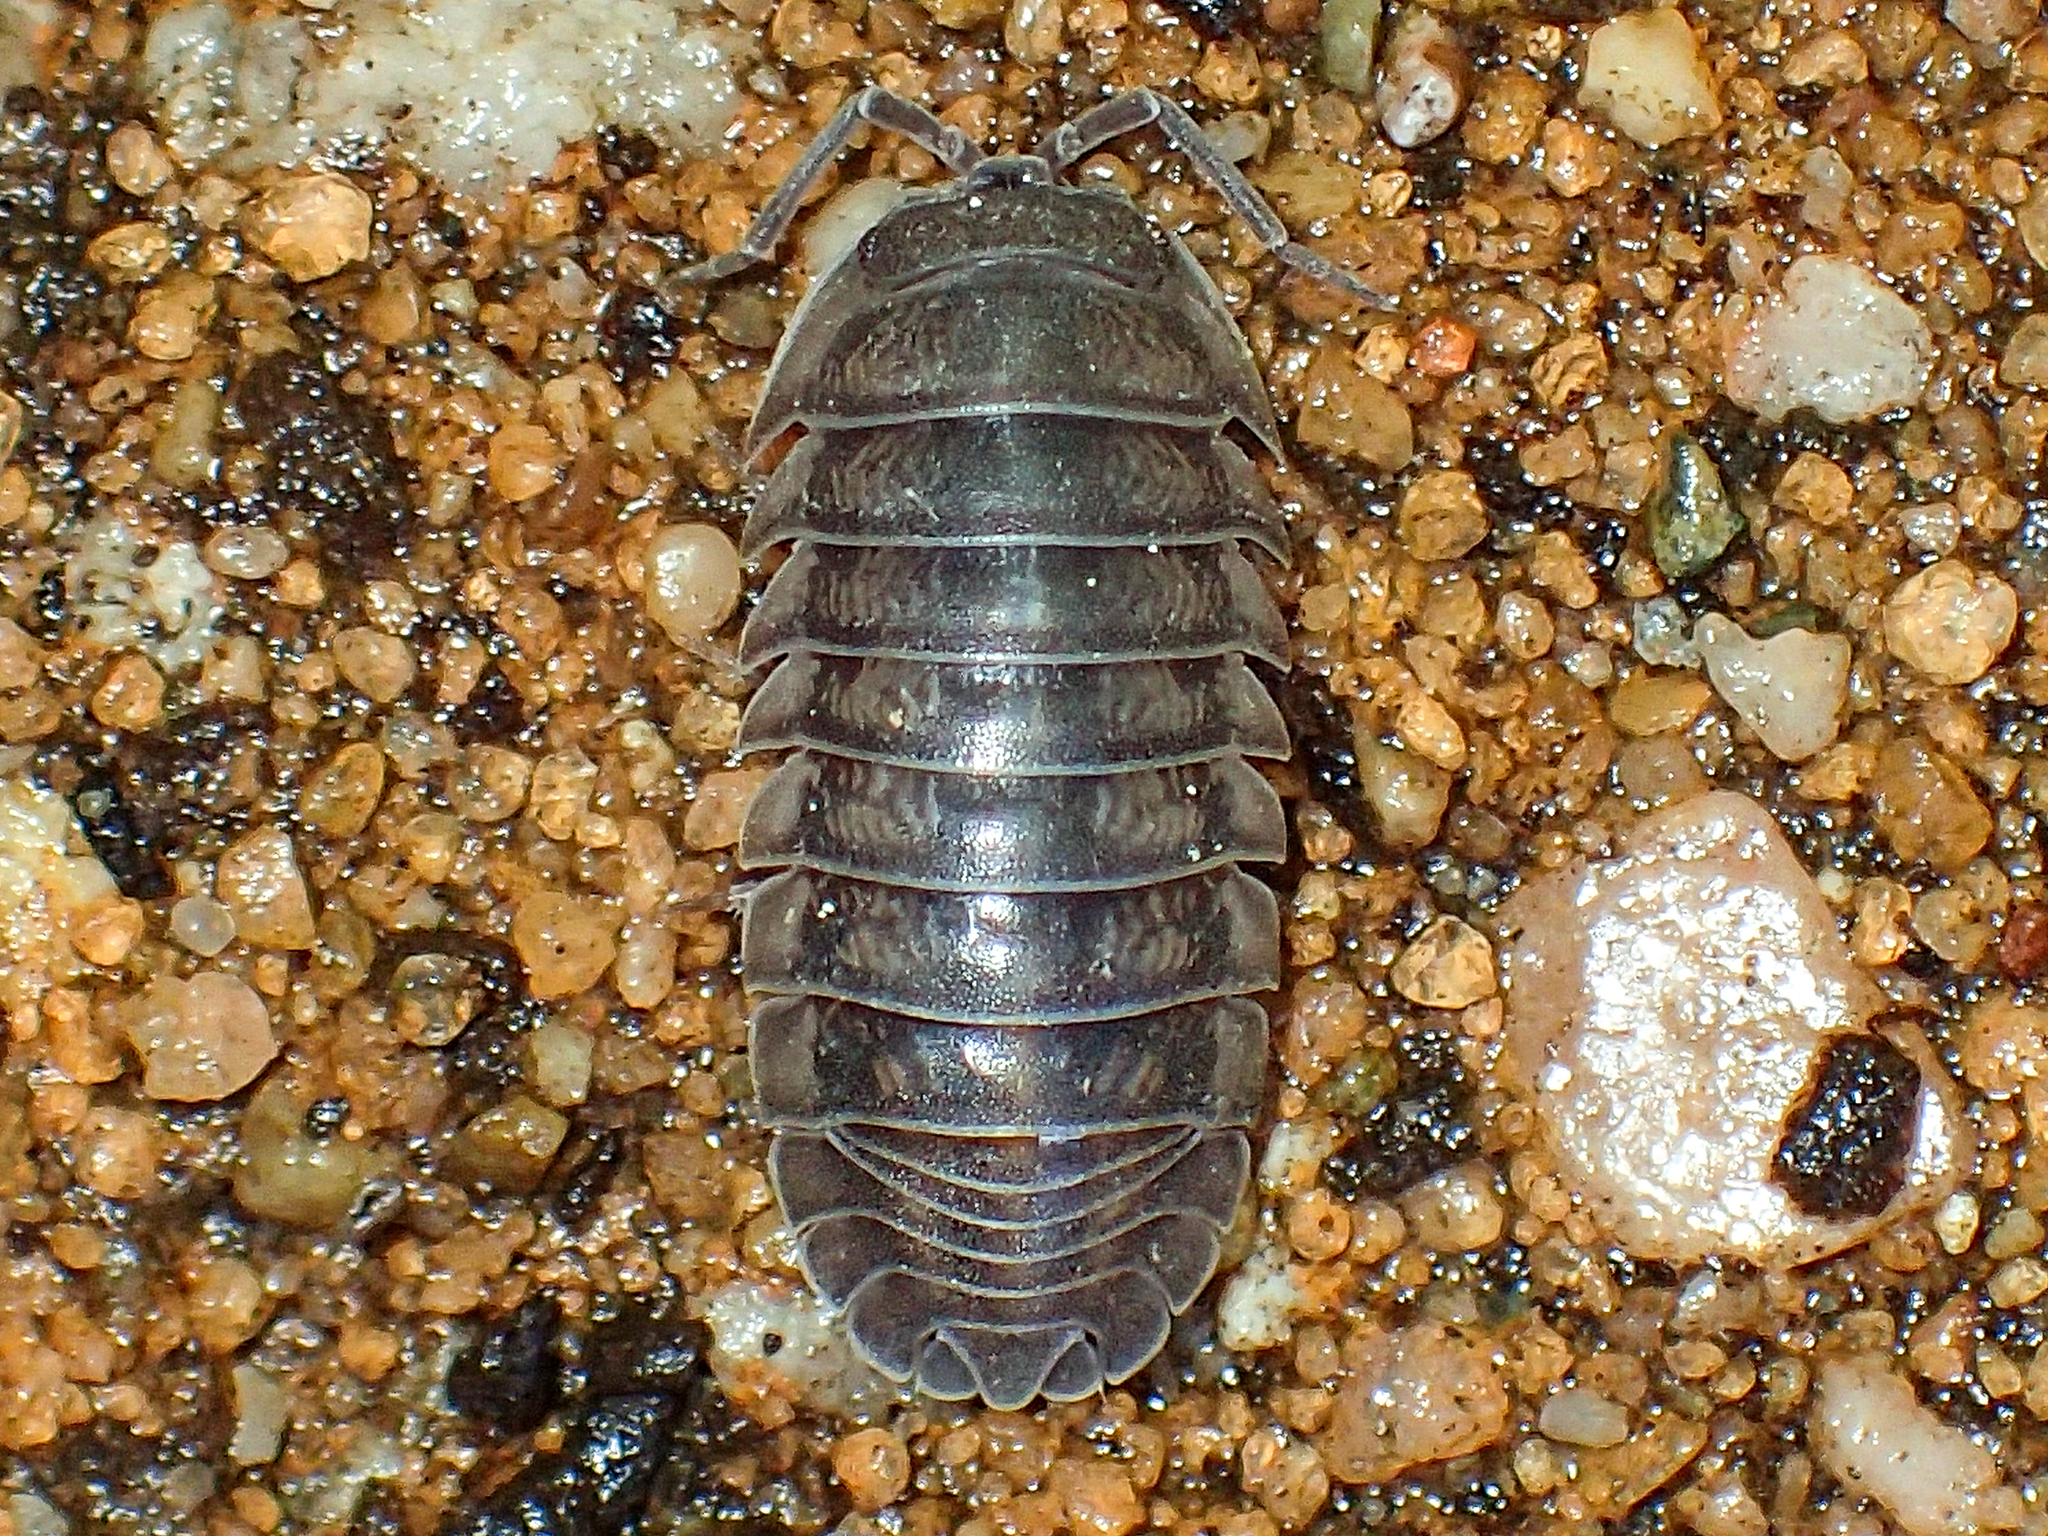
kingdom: Animalia
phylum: Arthropoda
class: Malacostraca
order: Isopoda
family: Armadillidiidae
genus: Armadillidium
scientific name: Armadillidium nasatum
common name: Isopod
